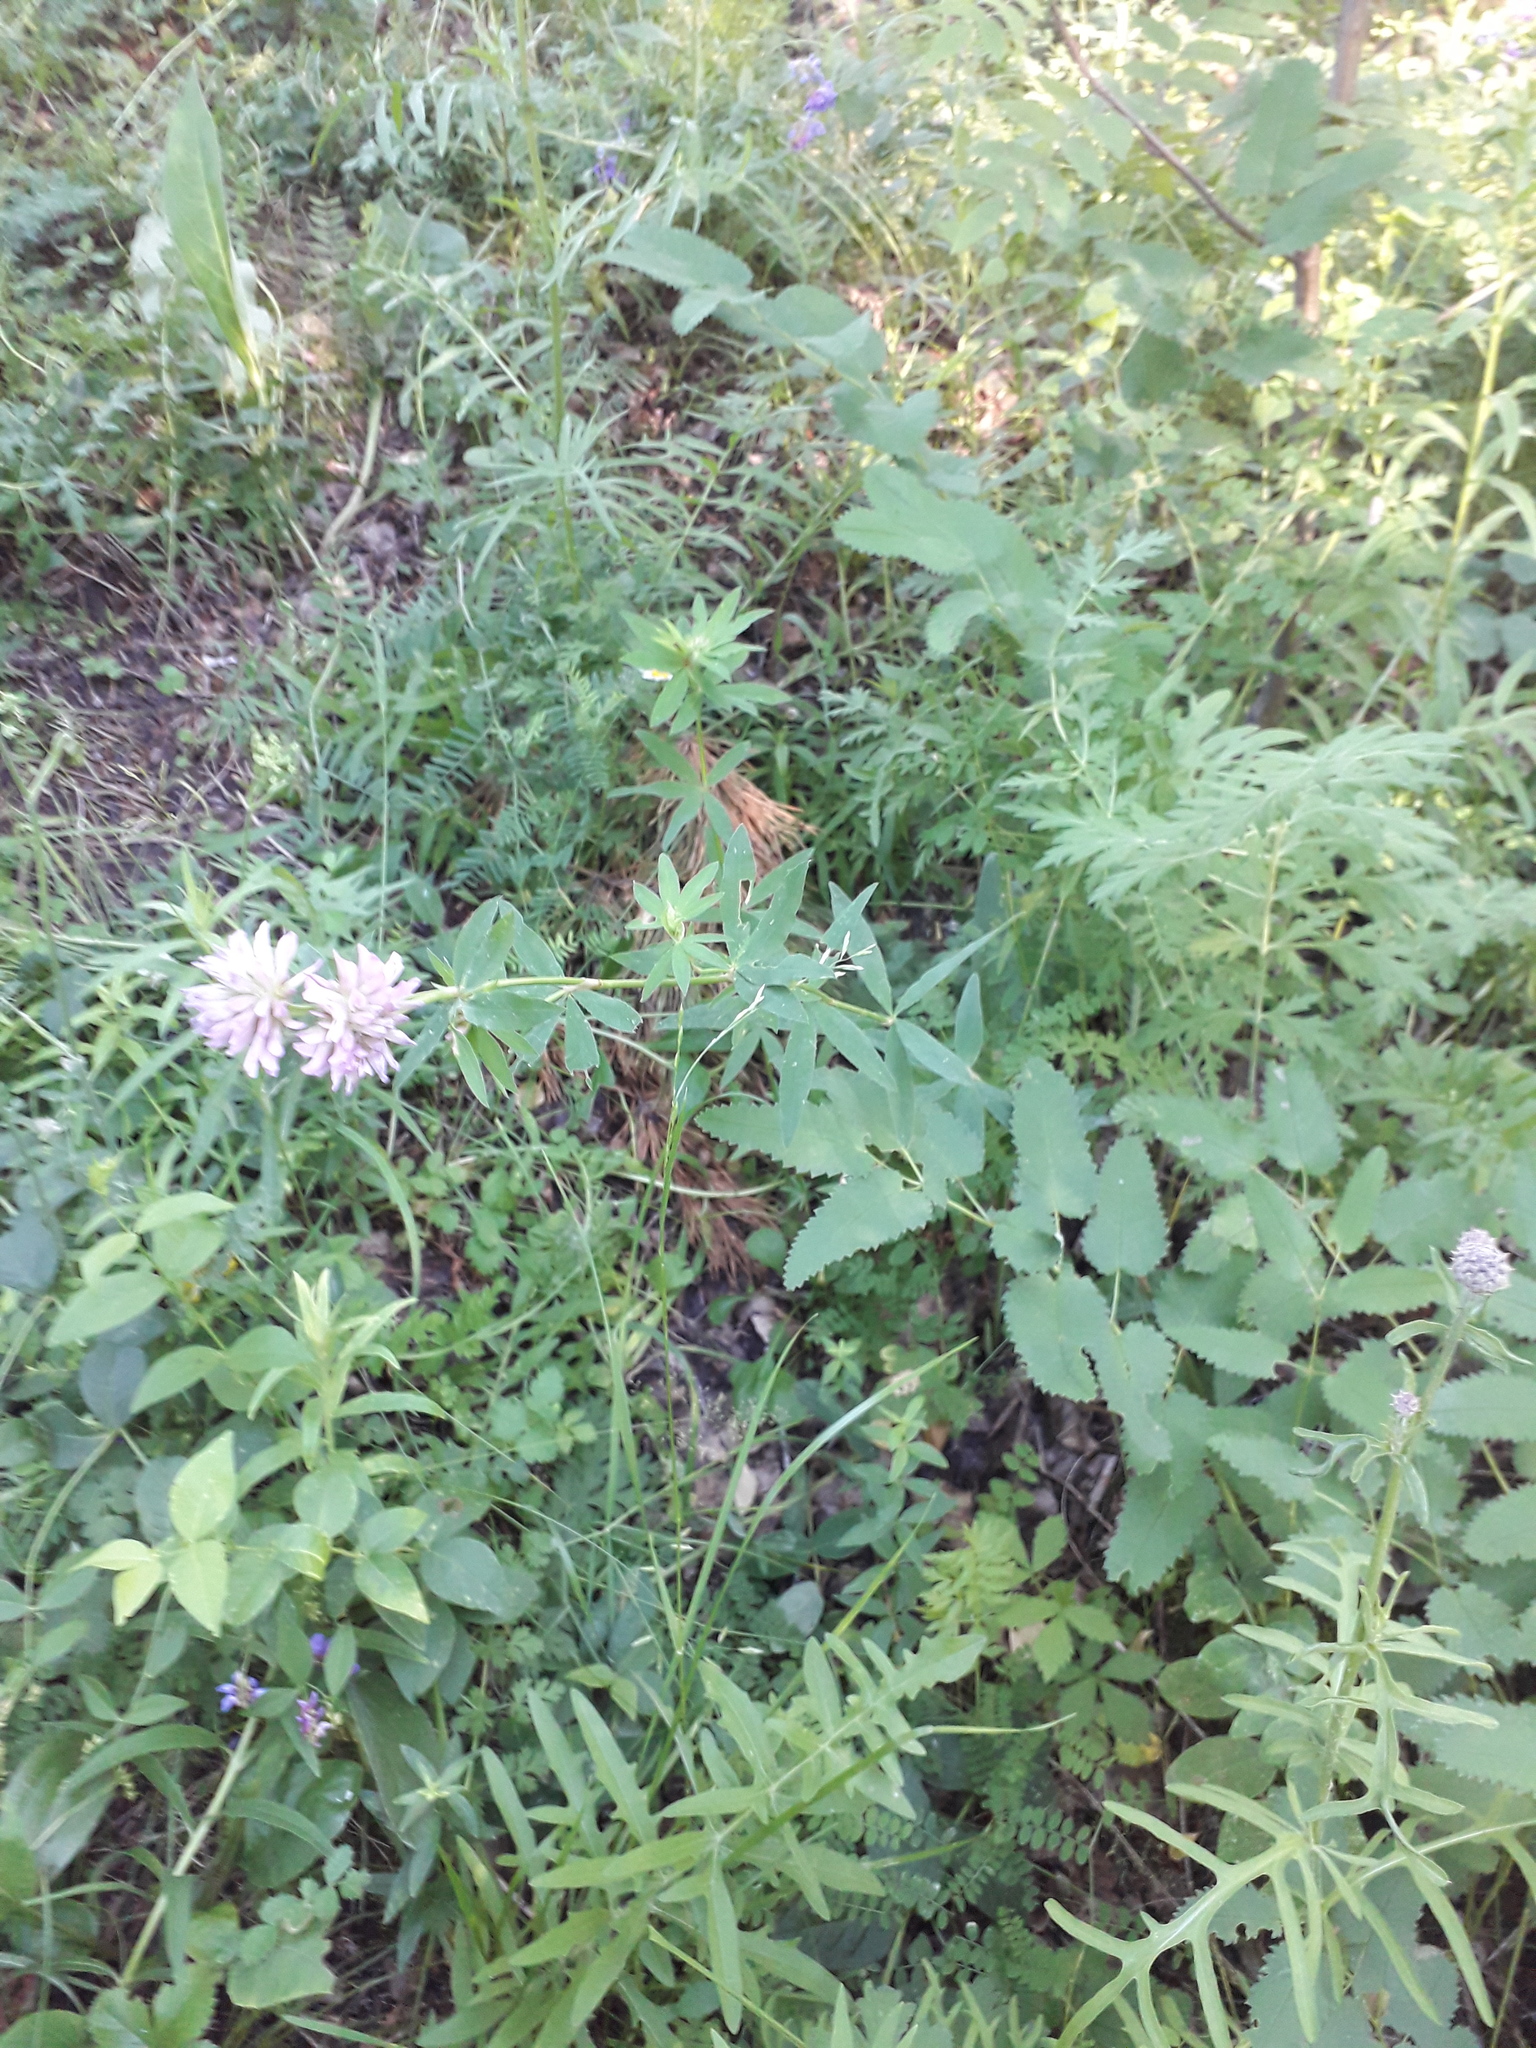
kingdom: Plantae
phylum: Tracheophyta
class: Magnoliopsida
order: Fabales
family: Fabaceae
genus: Trifolium
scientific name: Trifolium lupinaster
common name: Lupine clover
